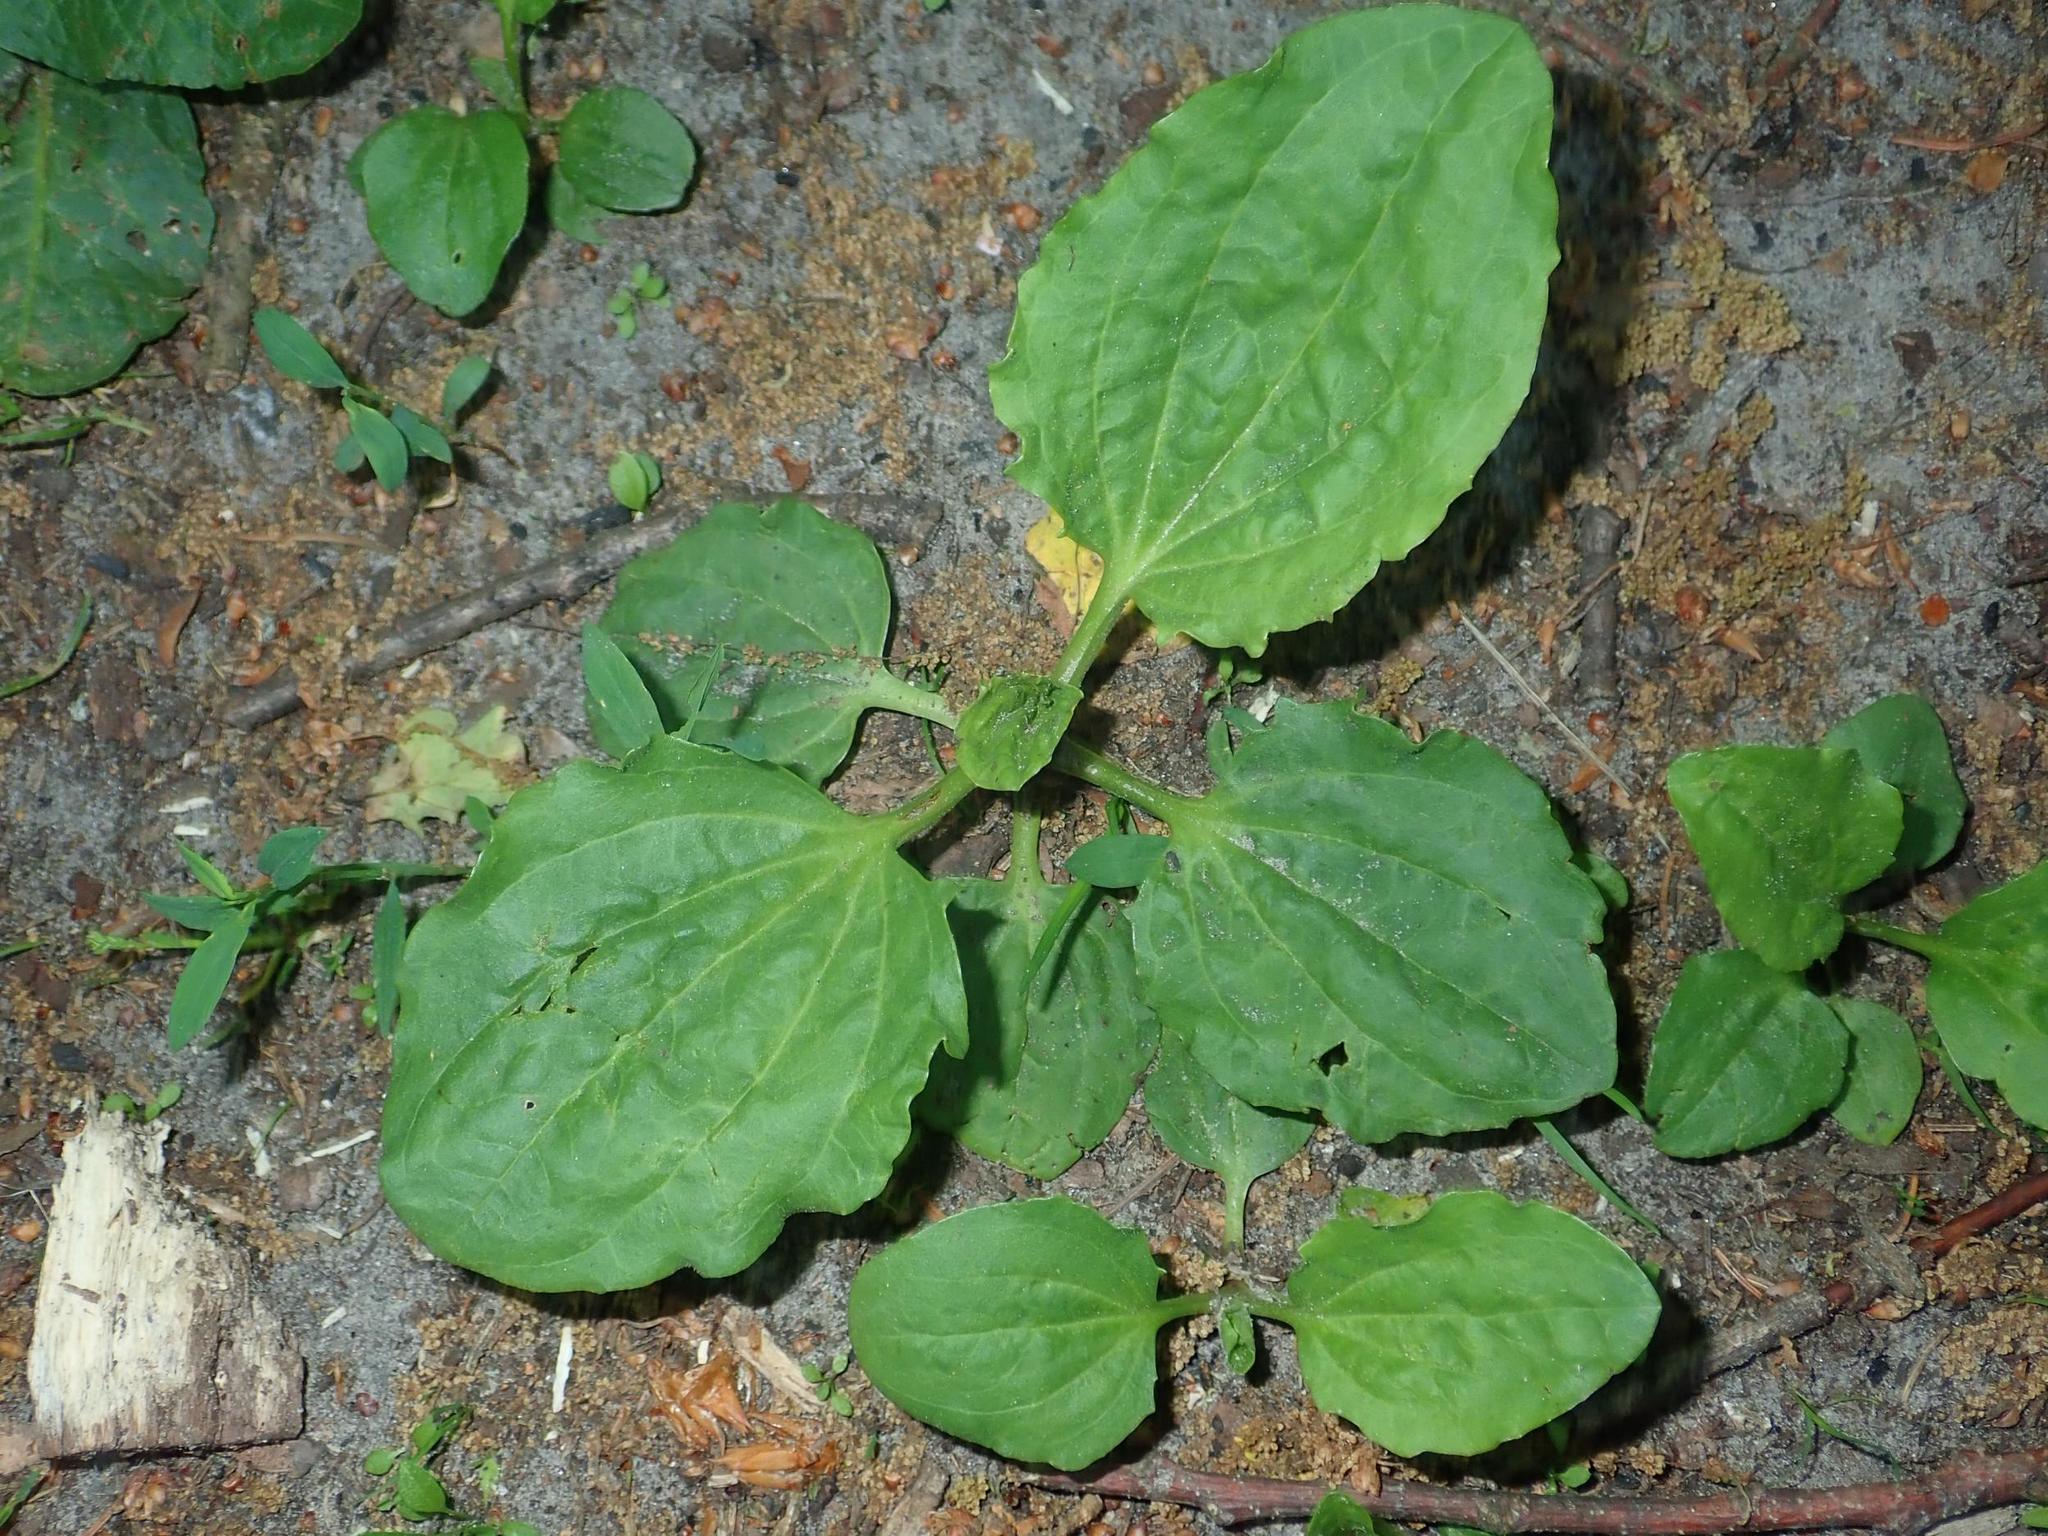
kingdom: Plantae
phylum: Tracheophyta
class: Magnoliopsida
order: Lamiales
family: Plantaginaceae
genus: Plantago
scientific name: Plantago major
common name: Common plantain
